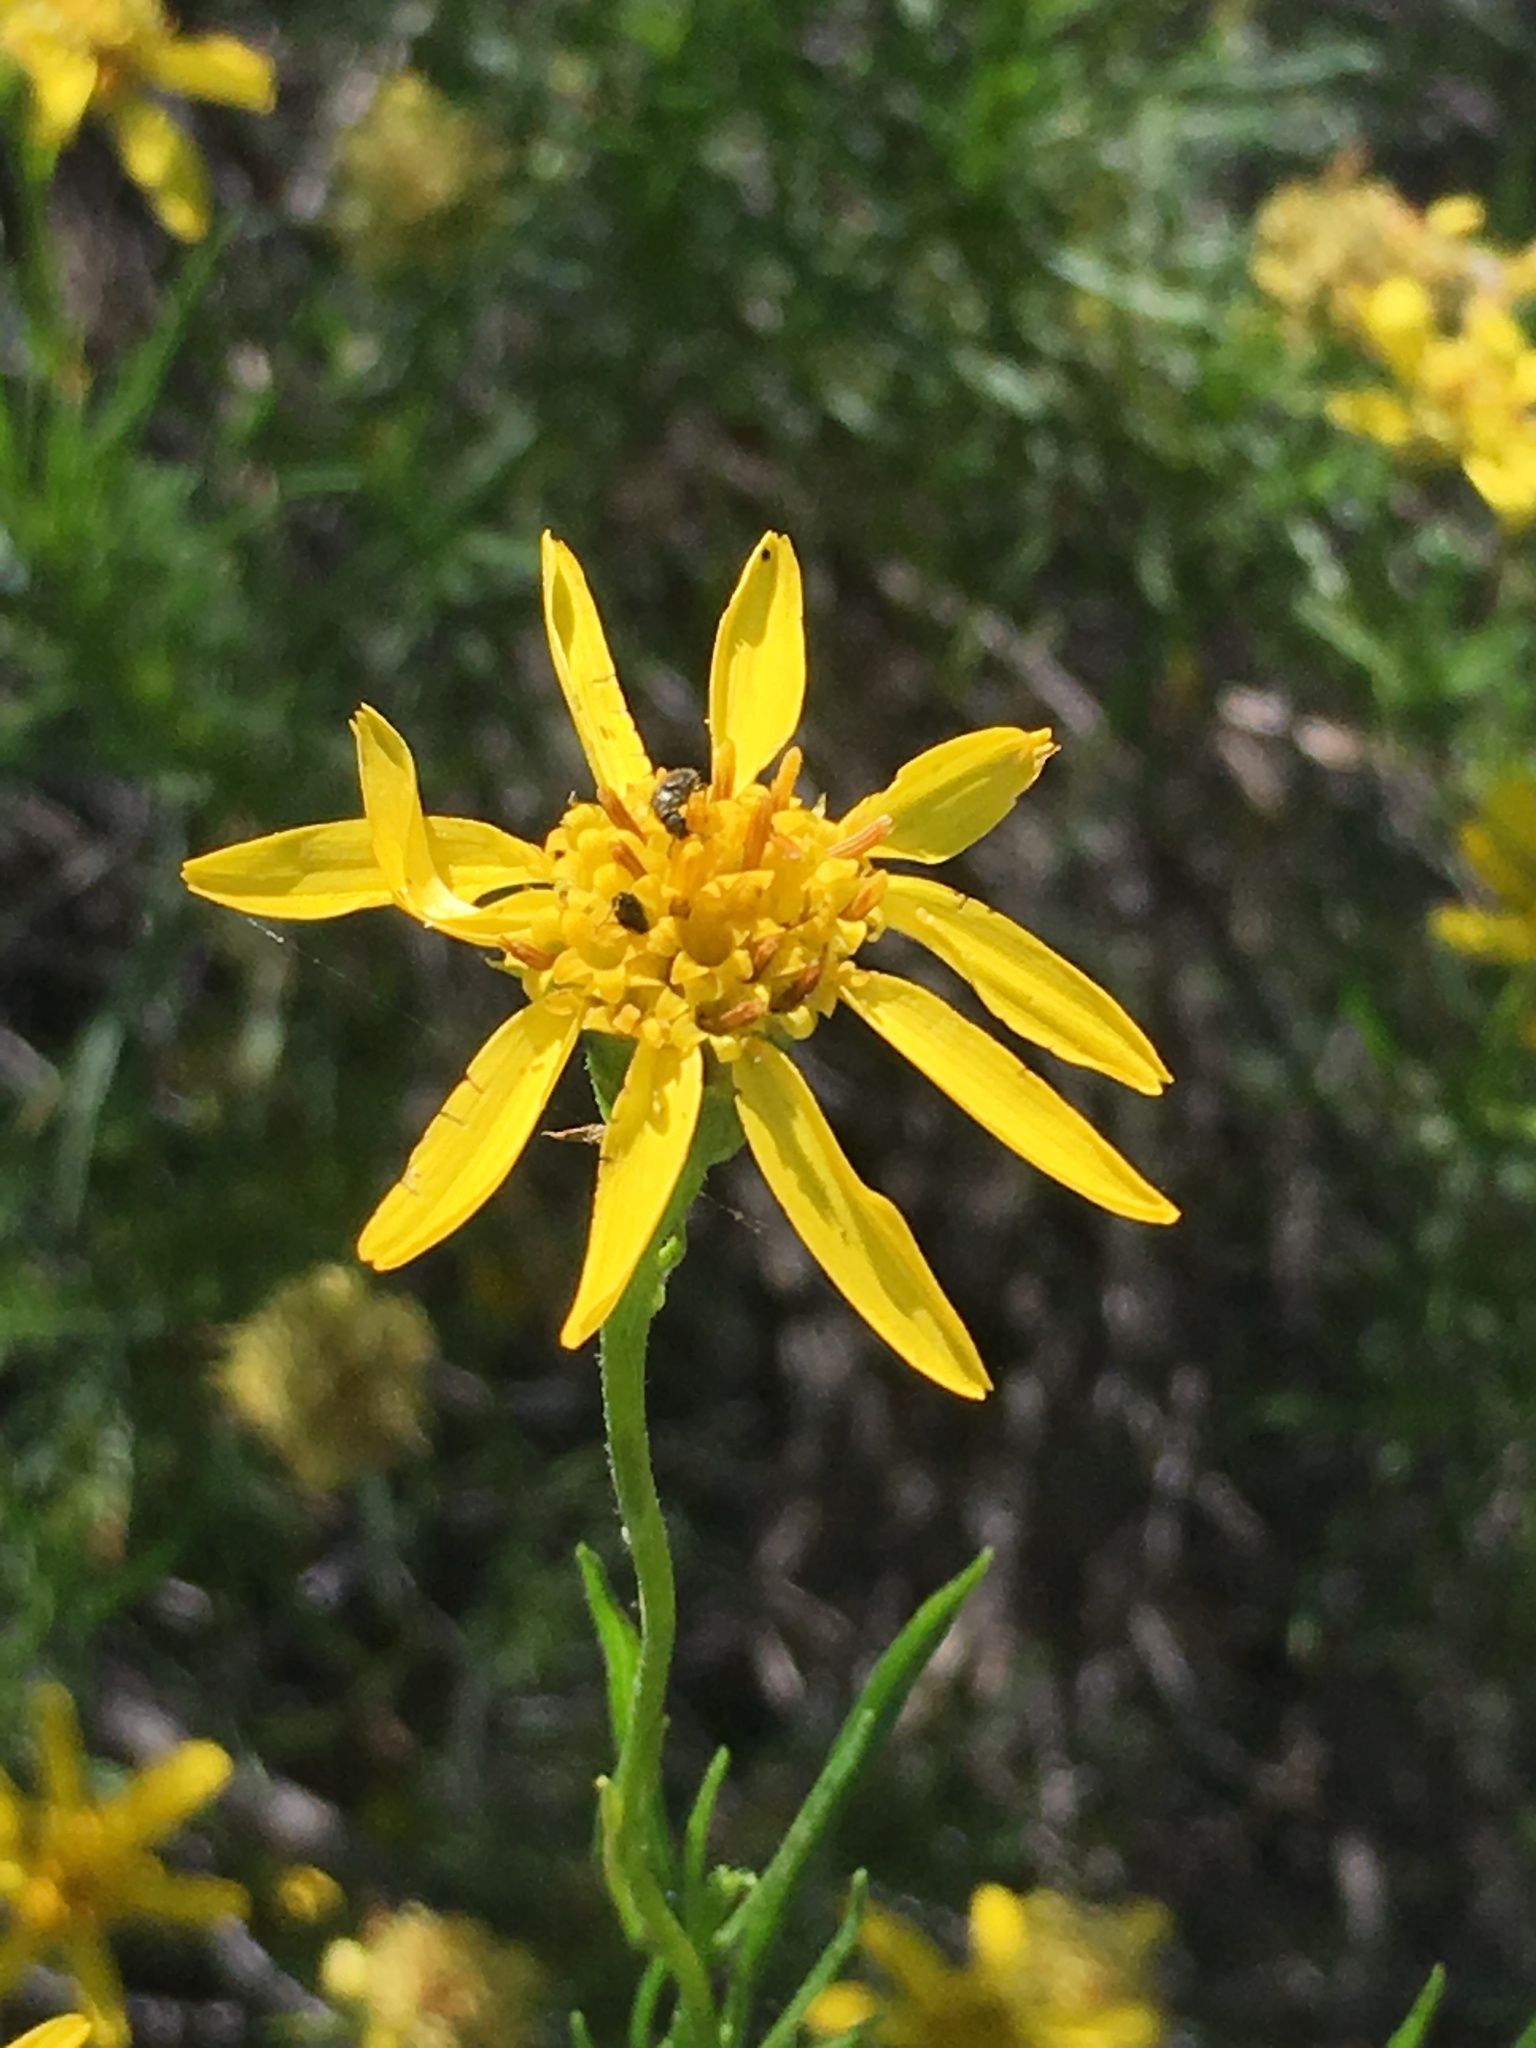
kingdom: Plantae
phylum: Tracheophyta
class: Magnoliopsida
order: Asterales
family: Asteraceae
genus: Ericameria
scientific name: Ericameria linearifolia
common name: Interior goldenbush
